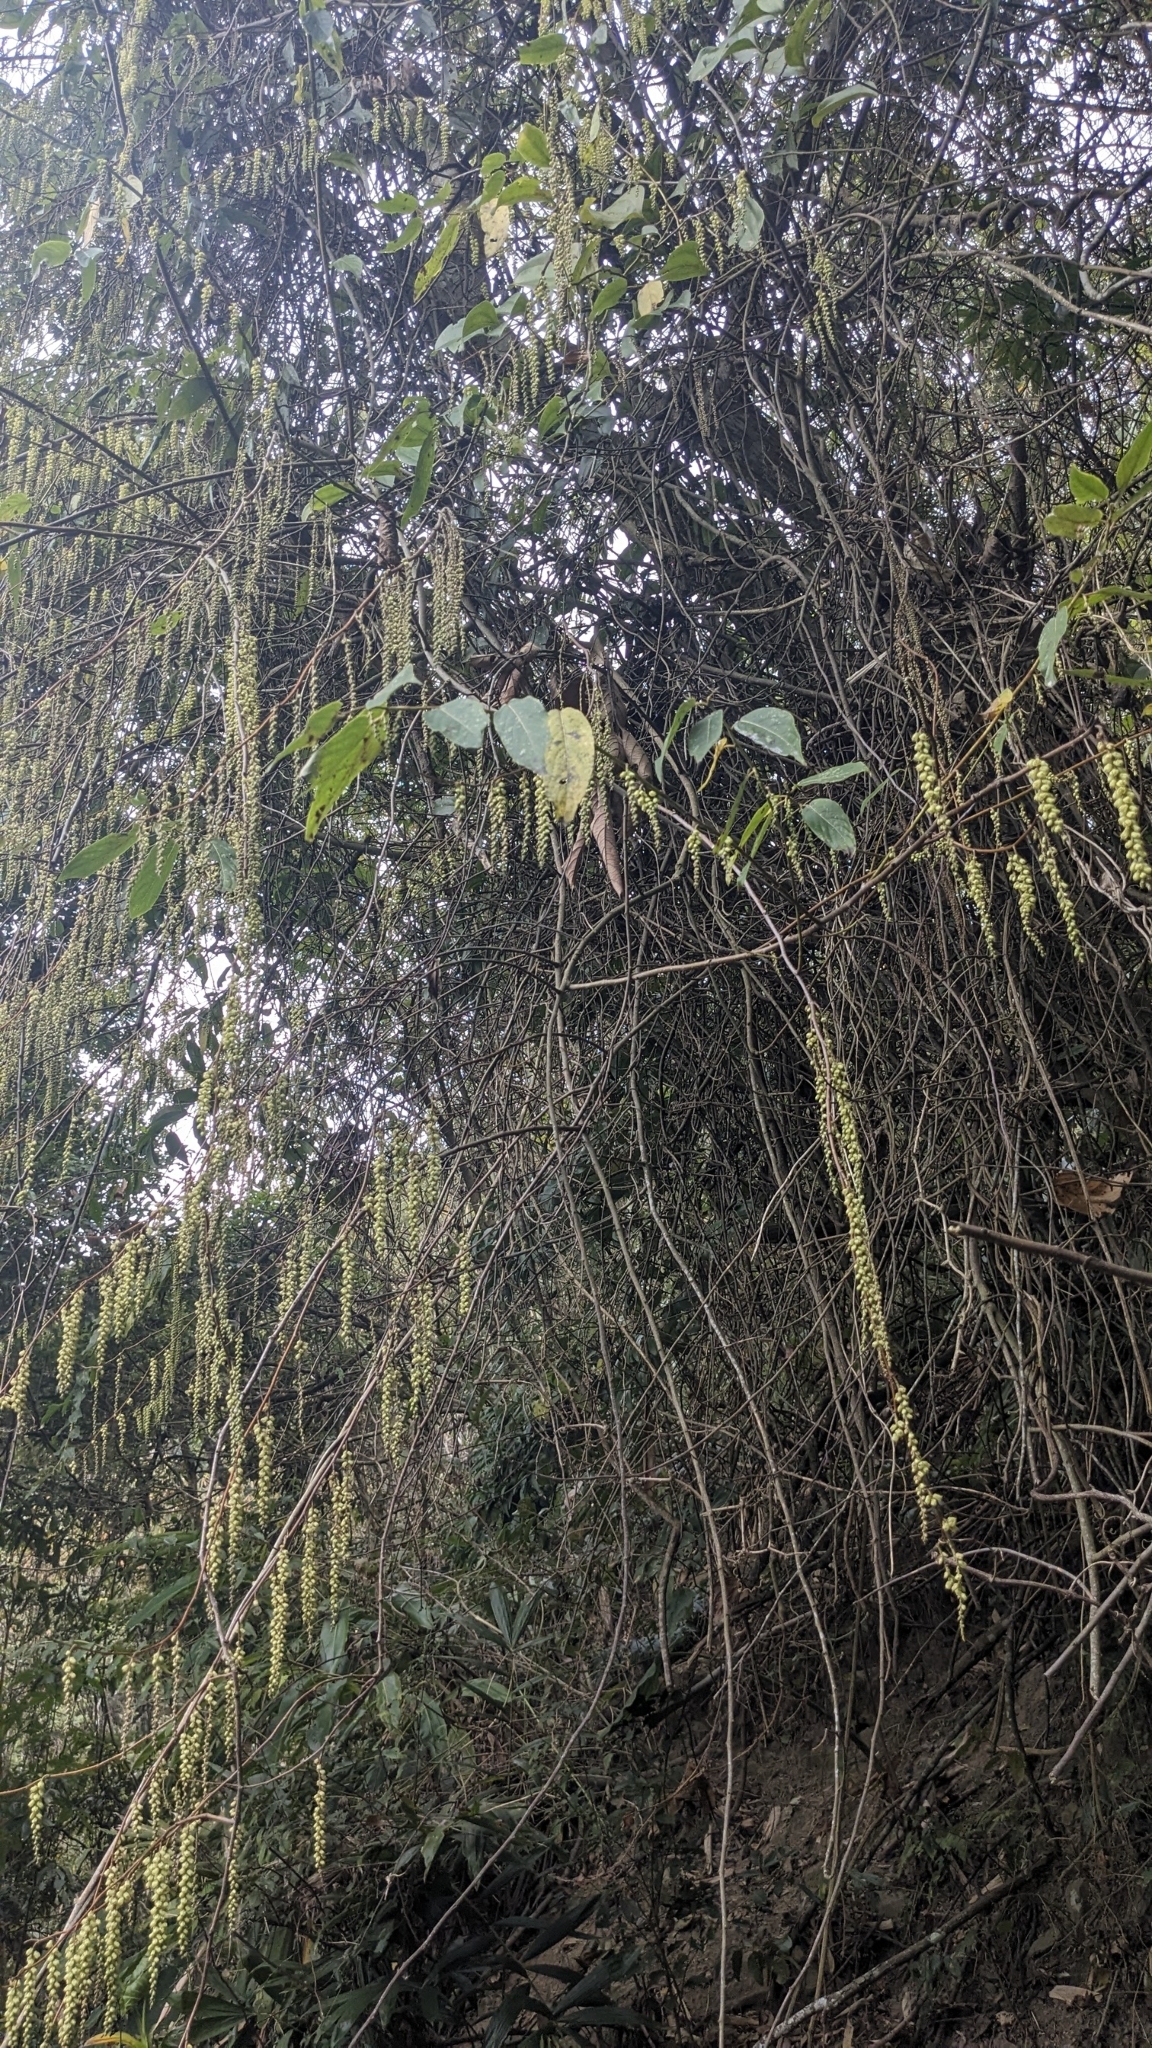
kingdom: Plantae
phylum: Tracheophyta
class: Magnoliopsida
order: Crossosomatales
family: Stachyuraceae
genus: Stachyurus
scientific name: Stachyurus himalaicus
